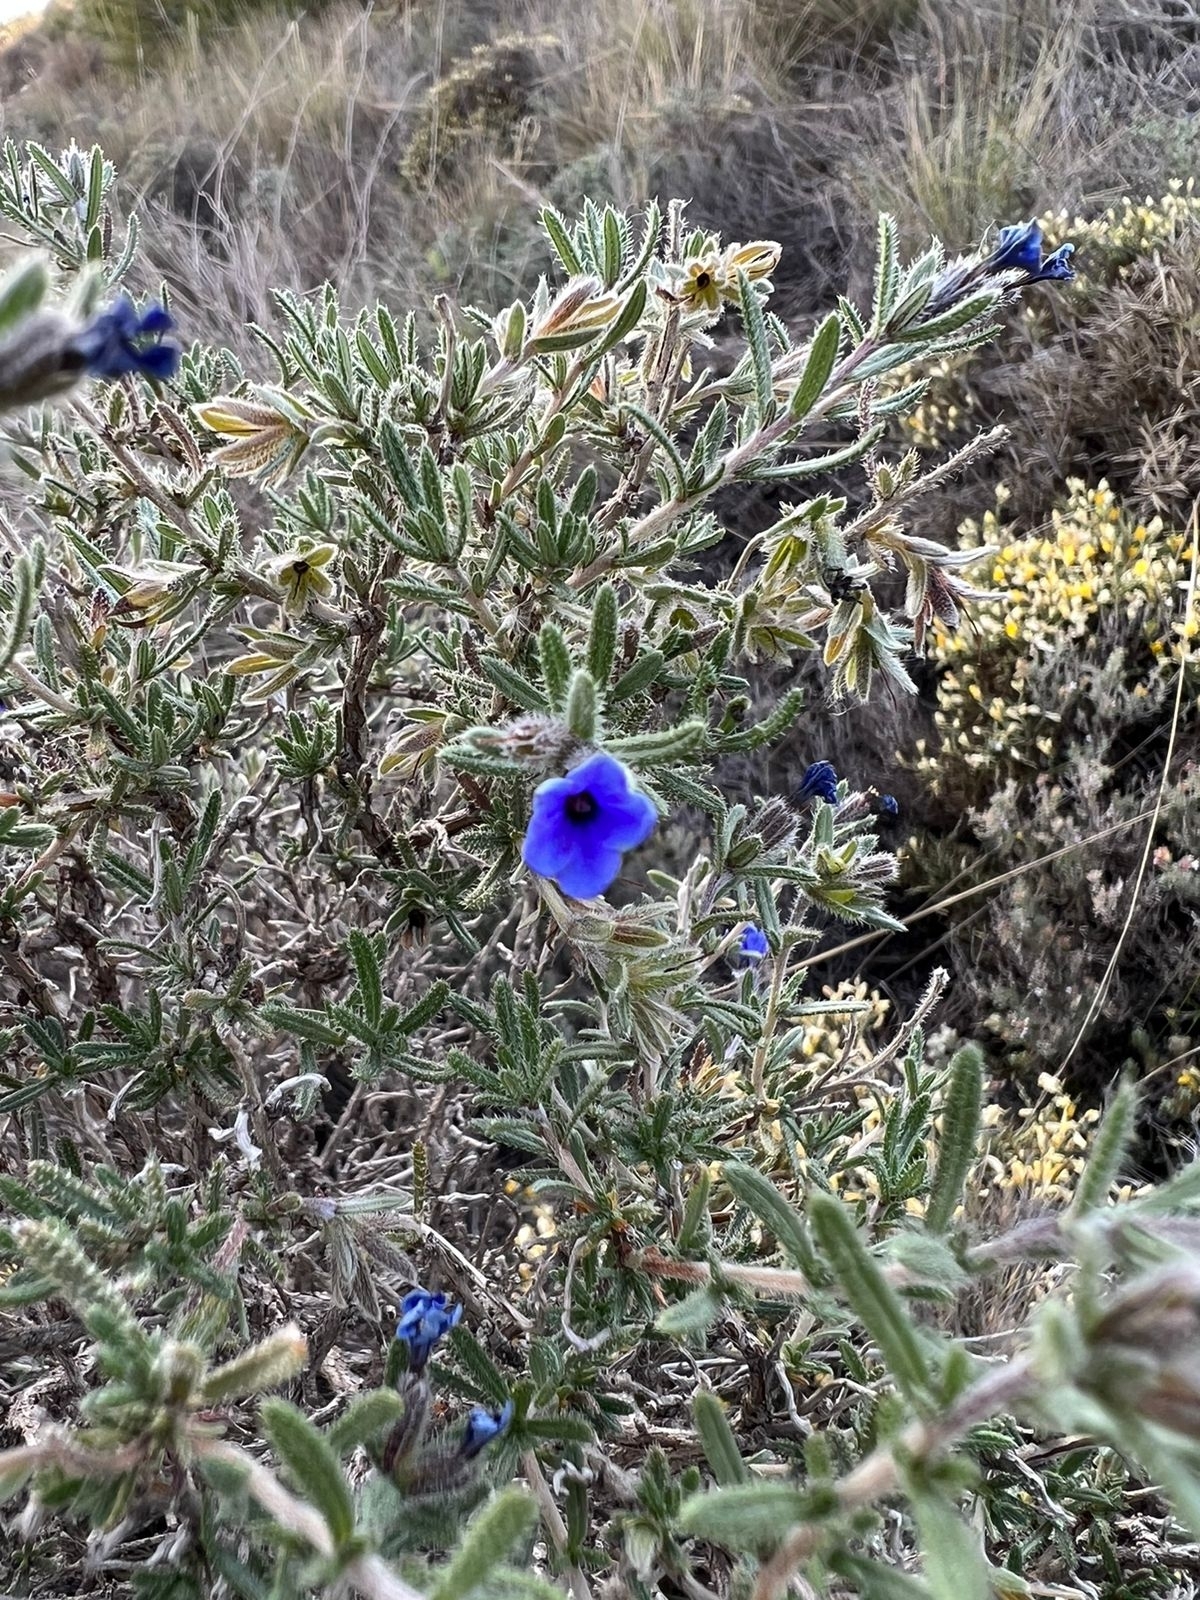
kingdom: Plantae
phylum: Tracheophyta
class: Magnoliopsida
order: Boraginales
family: Boraginaceae
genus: Lithodora
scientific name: Lithodora fruticosa
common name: Shrubby gromwell
